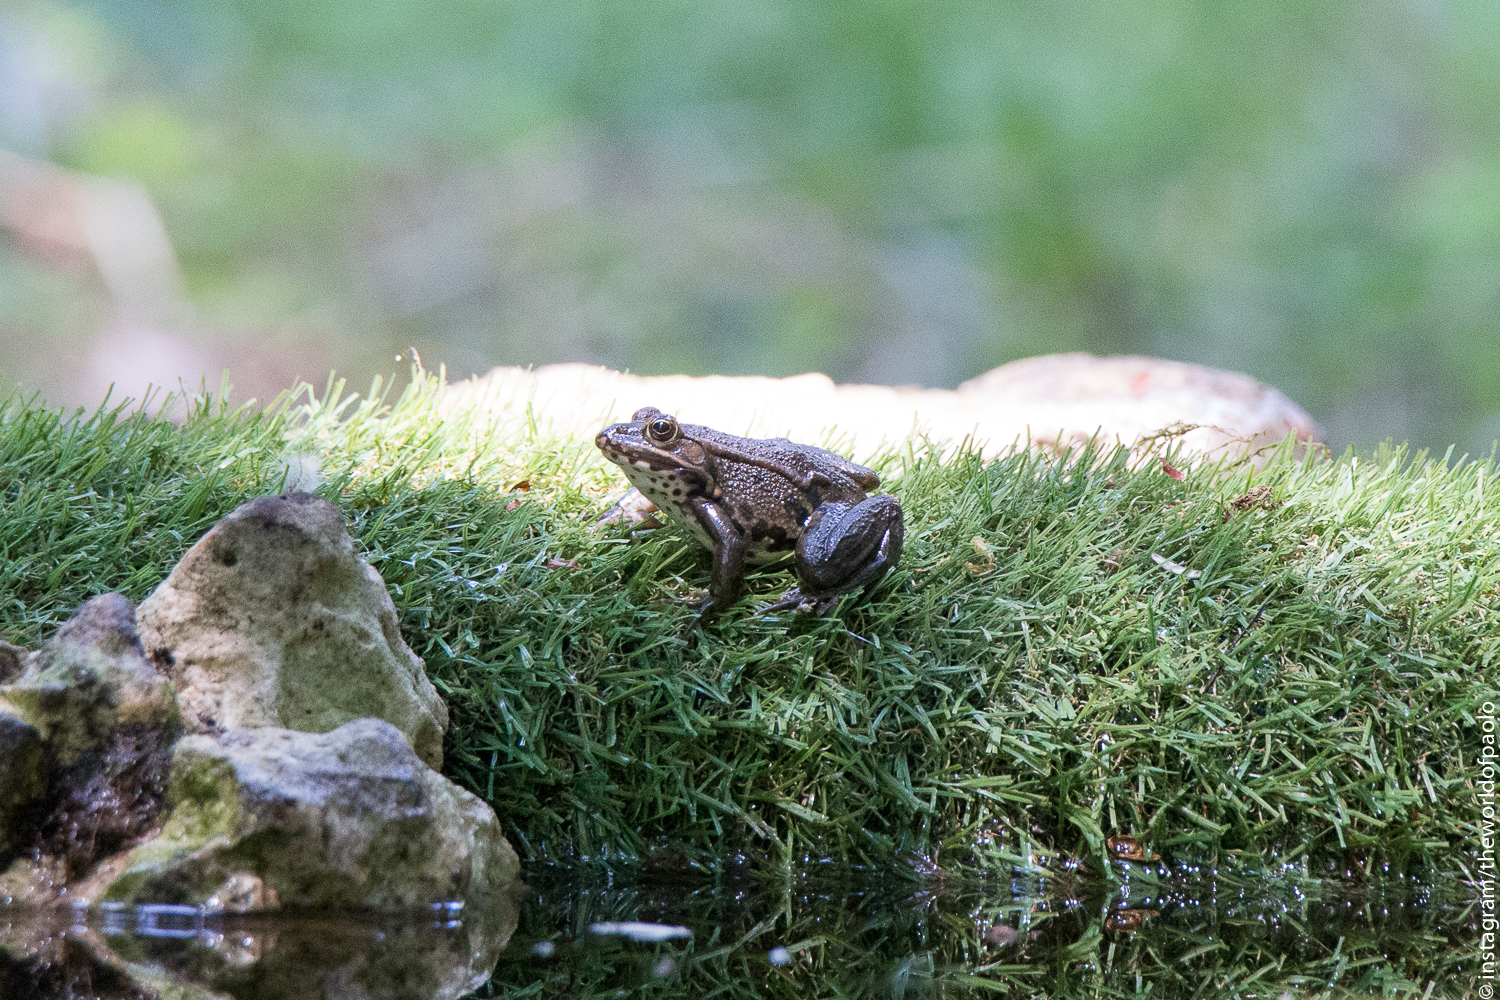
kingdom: Animalia
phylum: Chordata
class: Amphibia
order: Anura
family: Ranidae
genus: Pelophylax
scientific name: Pelophylax
